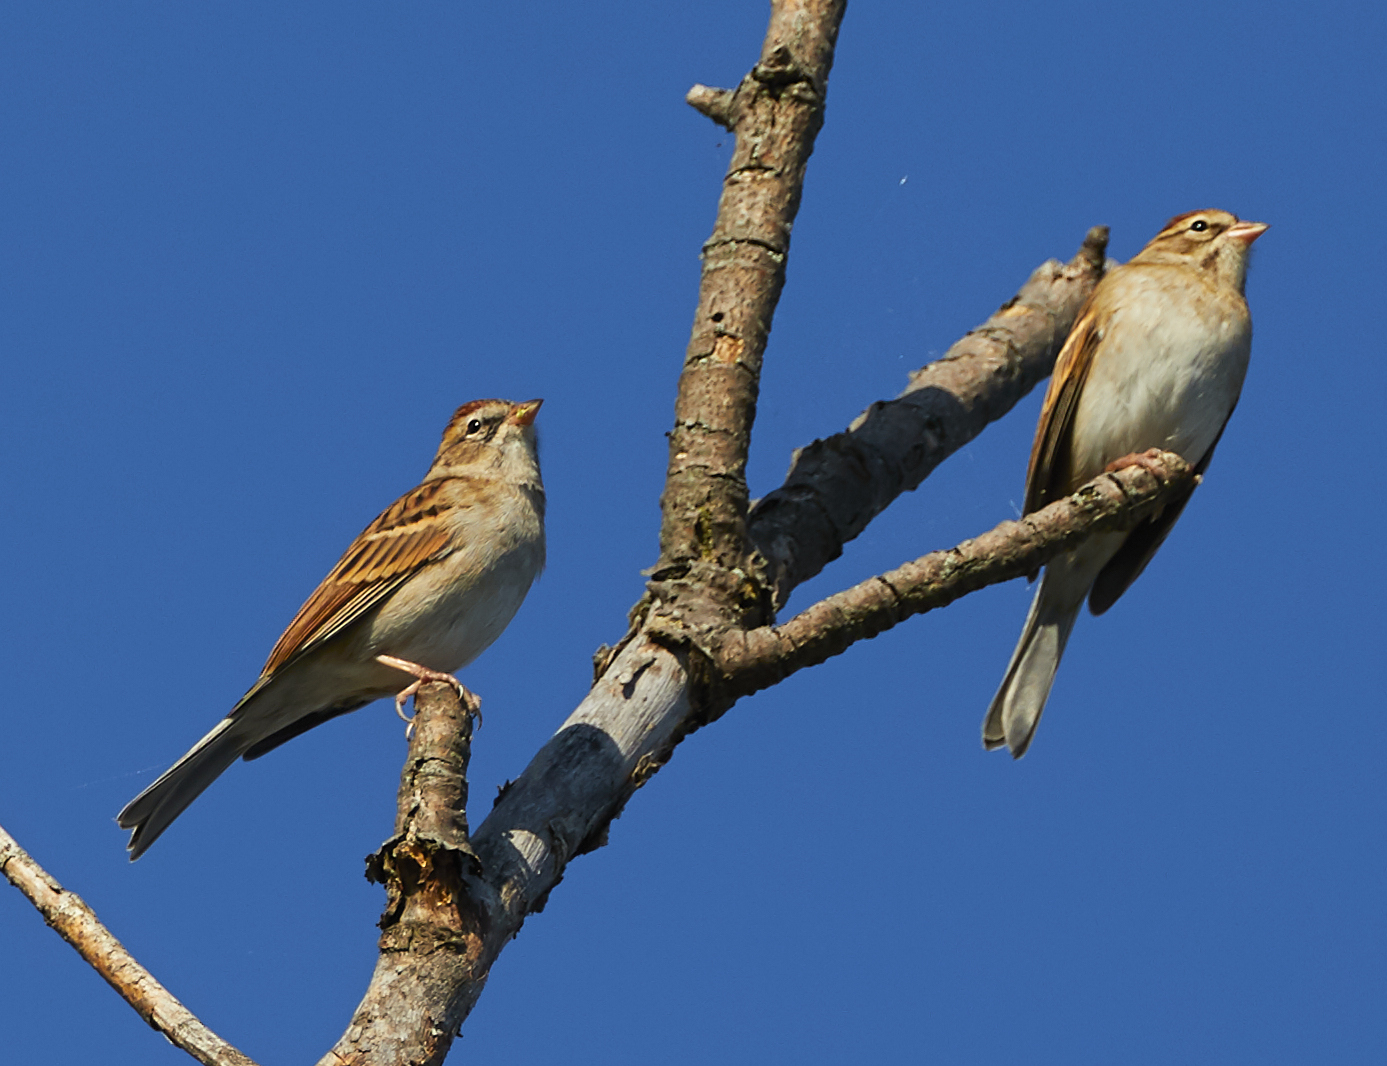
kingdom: Animalia
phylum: Chordata
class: Aves
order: Passeriformes
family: Passerellidae
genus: Spizella
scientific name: Spizella passerina
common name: Chipping sparrow
